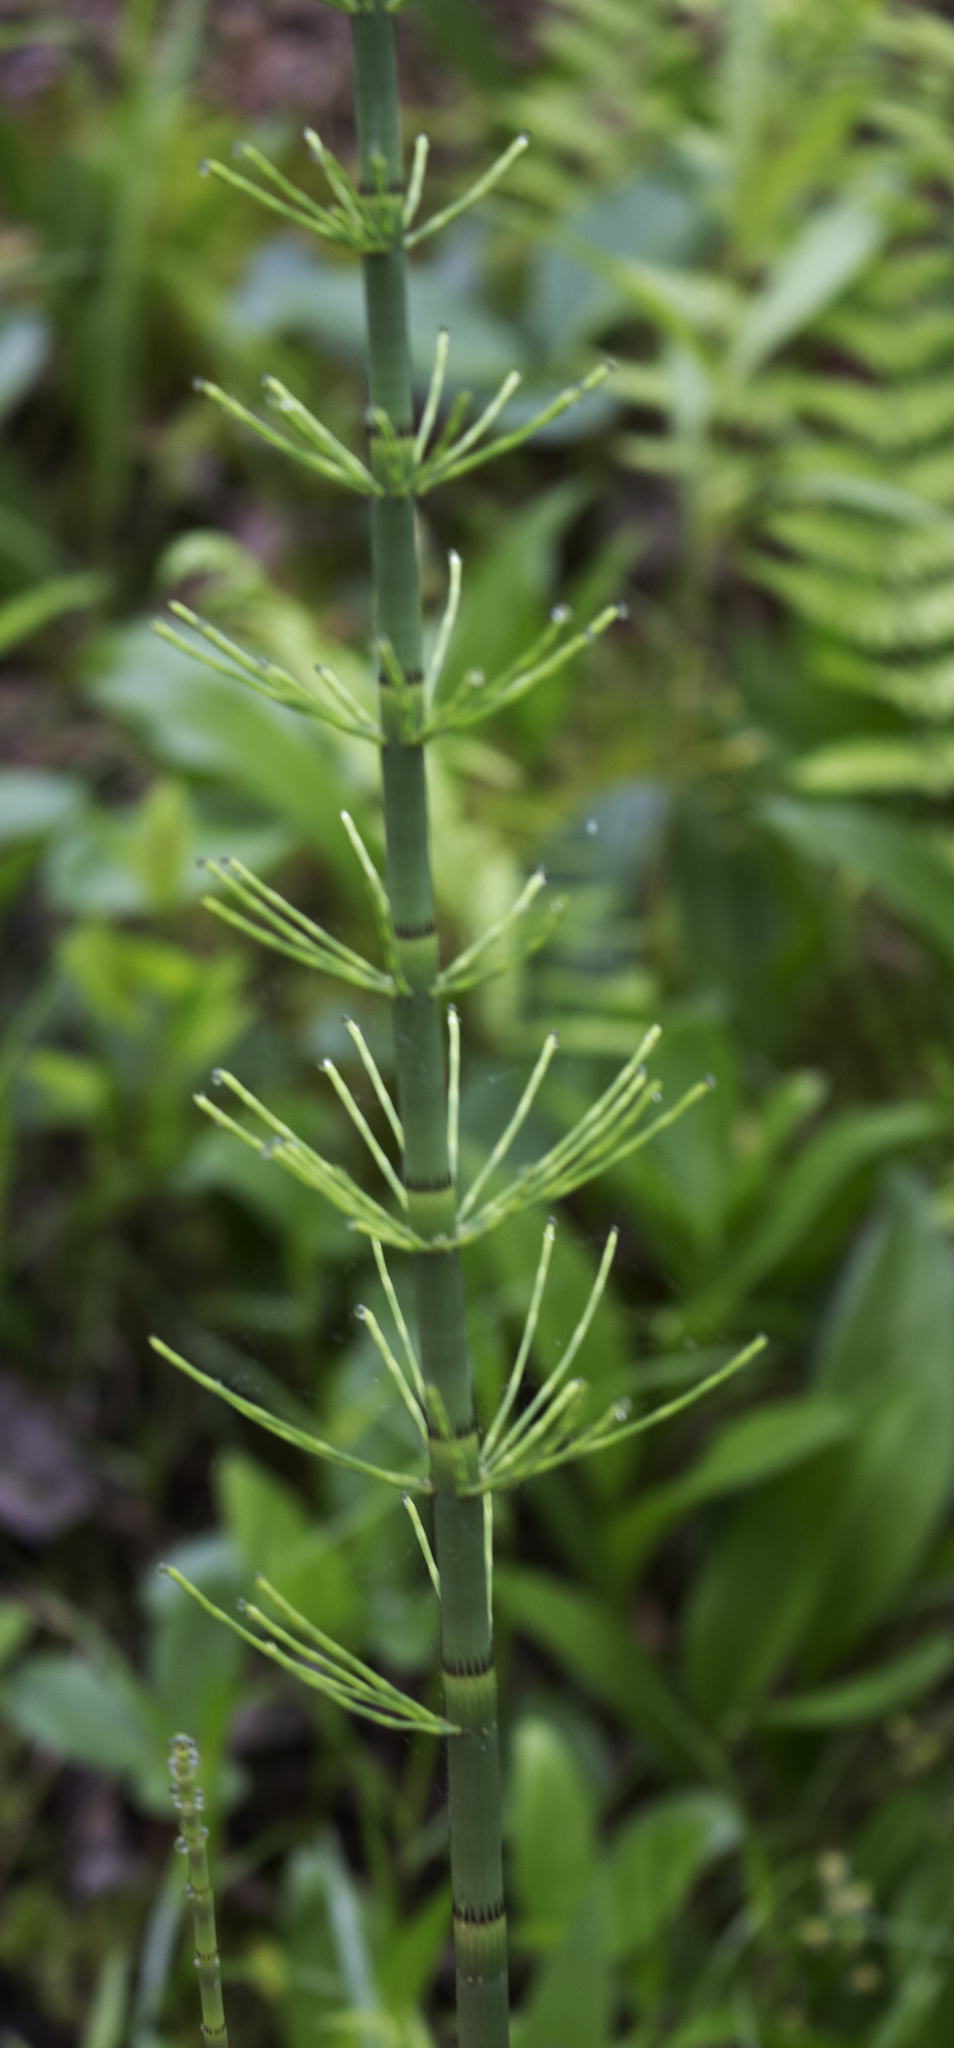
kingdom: Plantae
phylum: Tracheophyta
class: Polypodiopsida
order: Equisetales
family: Equisetaceae
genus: Equisetum
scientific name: Equisetum fluviatile
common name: Water horsetail
